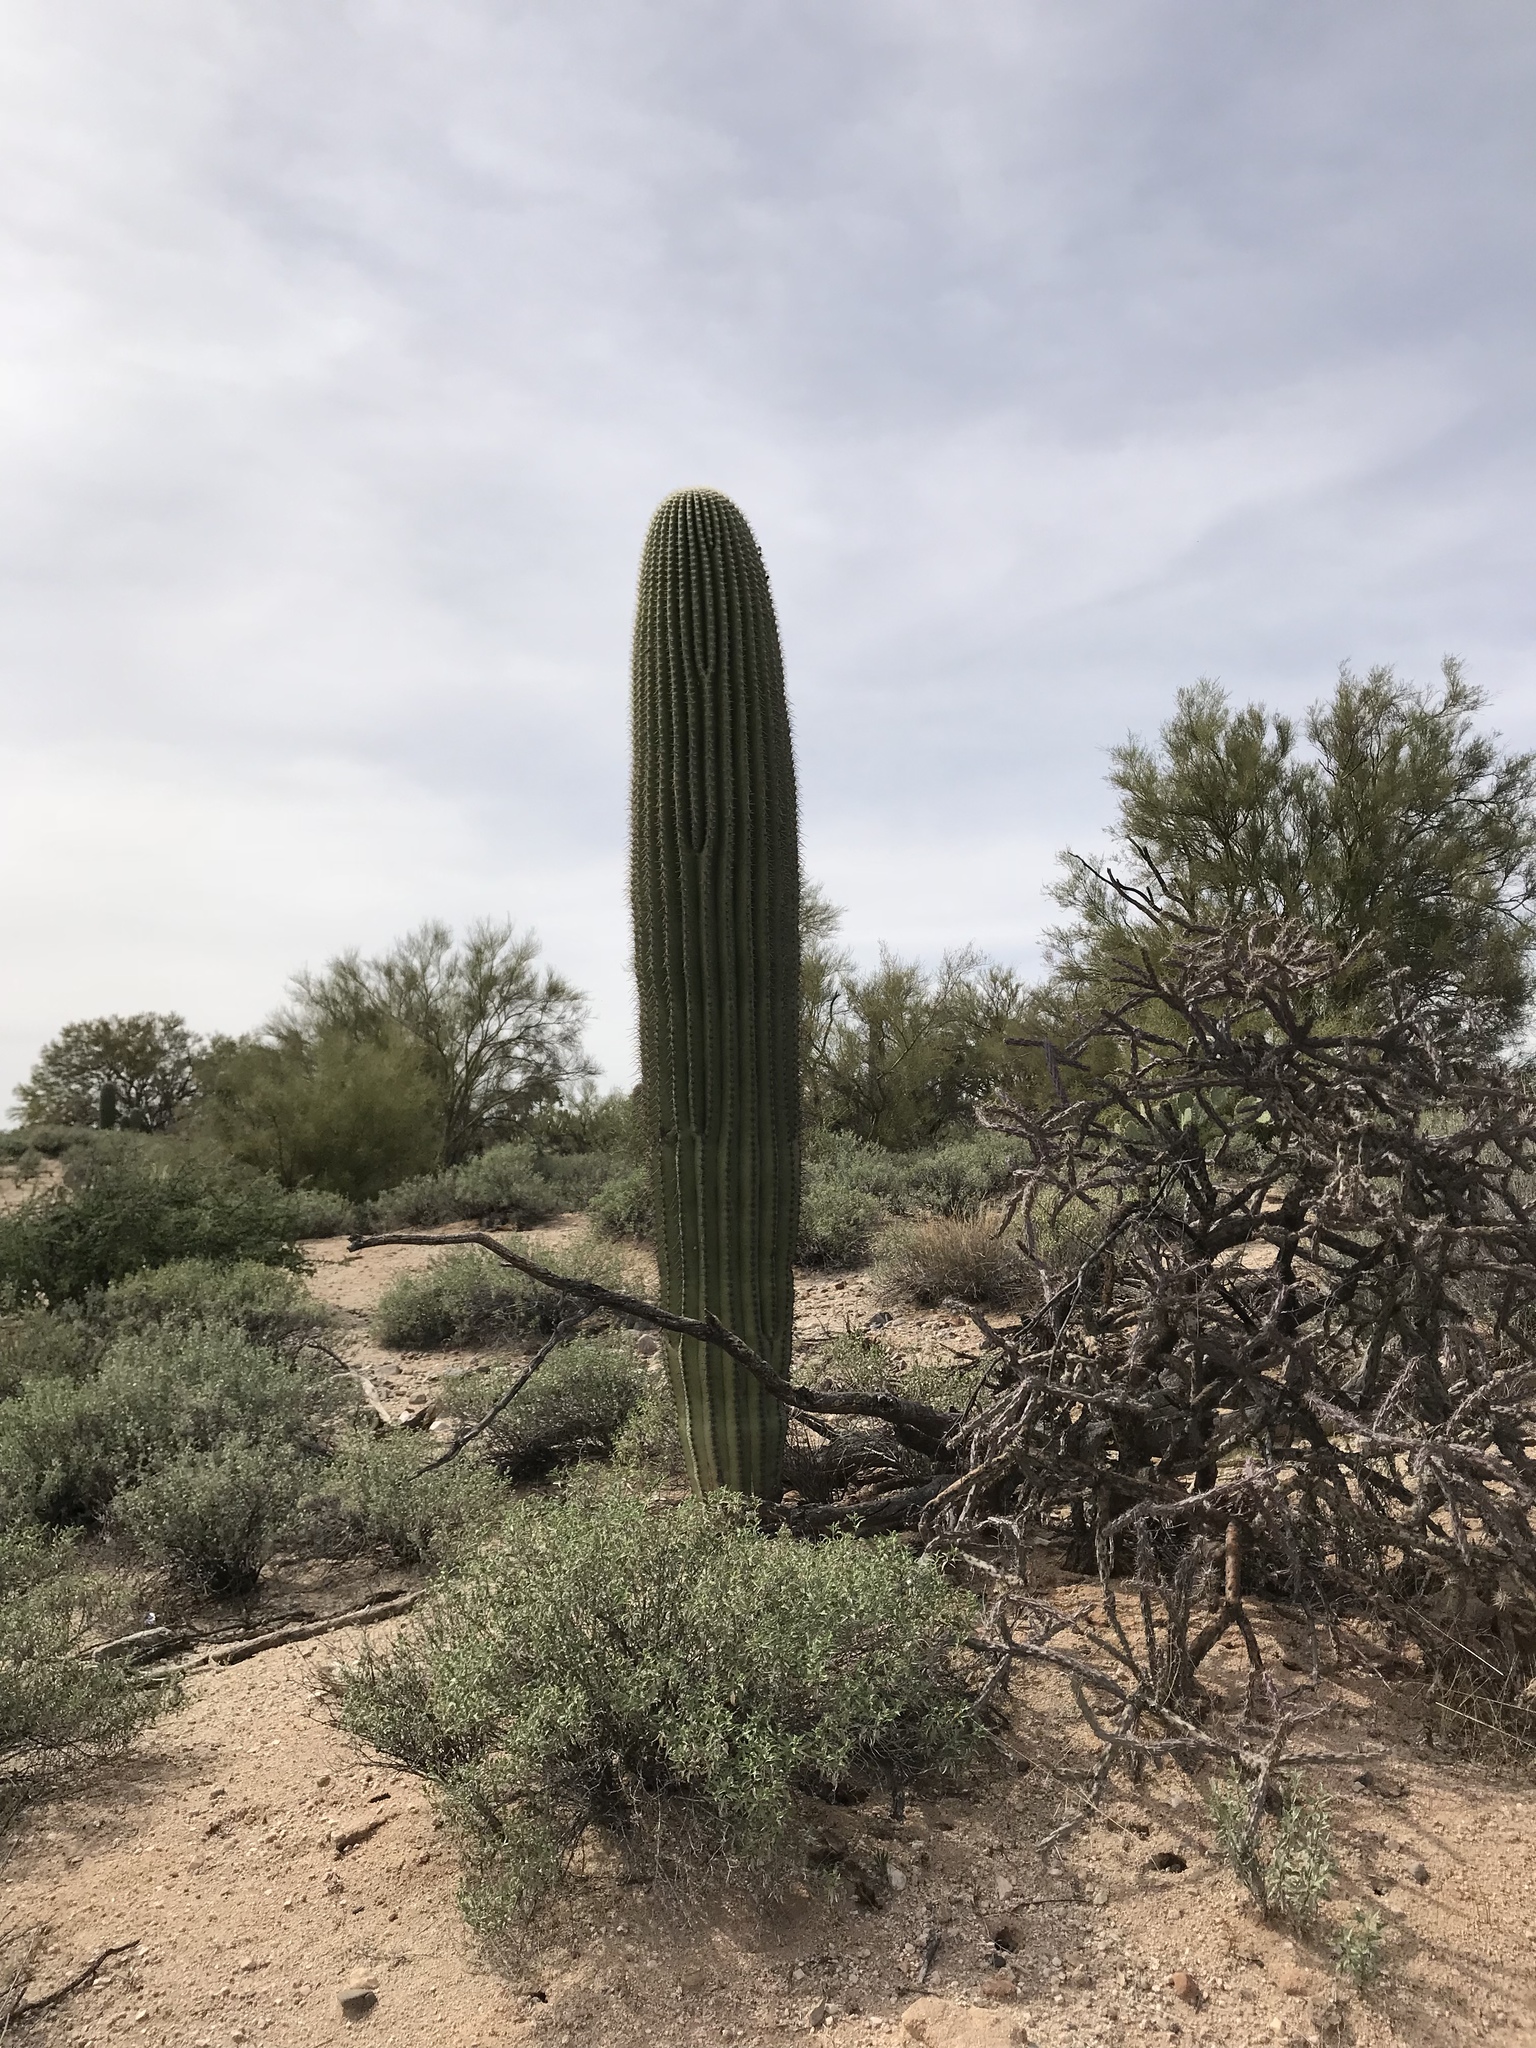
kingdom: Plantae
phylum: Tracheophyta
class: Magnoliopsida
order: Caryophyllales
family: Cactaceae
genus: Carnegiea
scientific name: Carnegiea gigantea
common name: Saguaro
